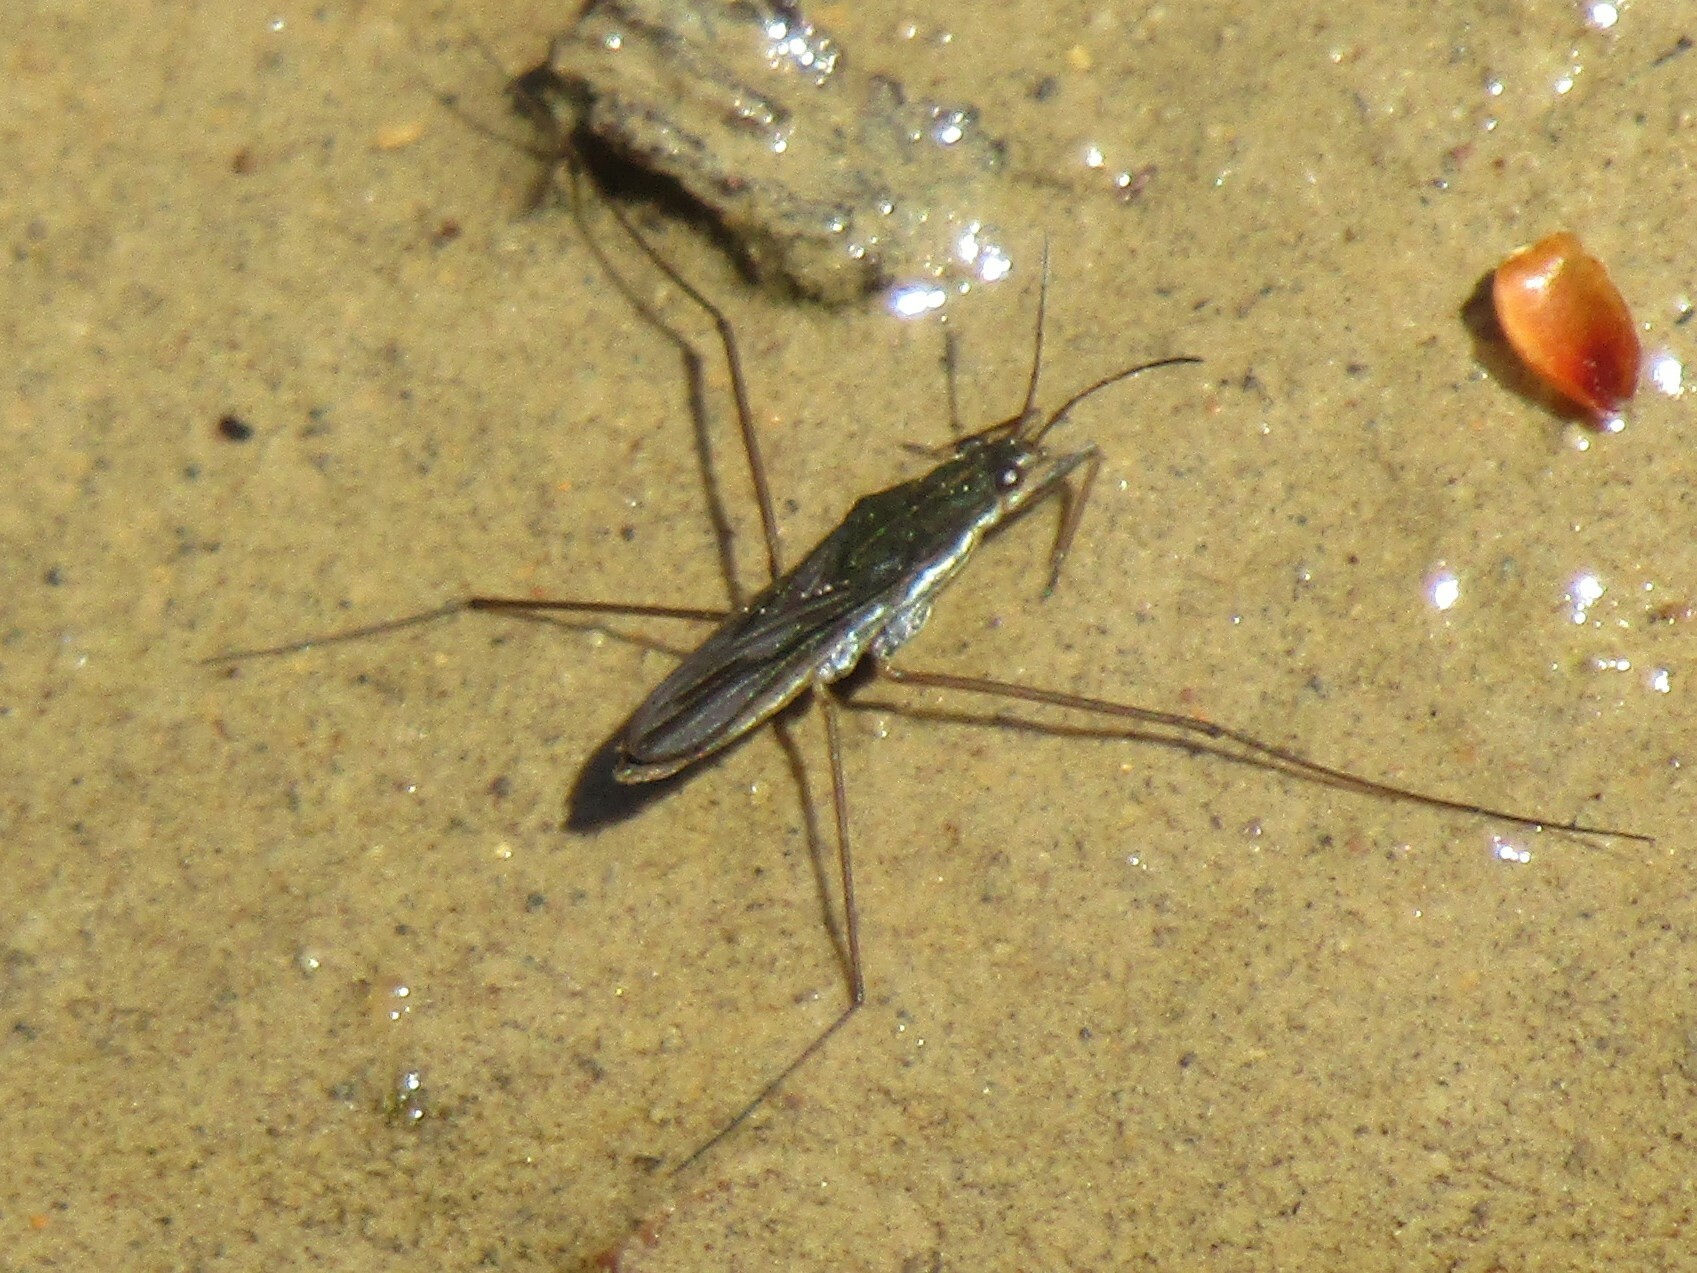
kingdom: Animalia
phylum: Arthropoda
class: Insecta
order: Hemiptera
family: Gerridae
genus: Gerris
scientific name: Gerris
